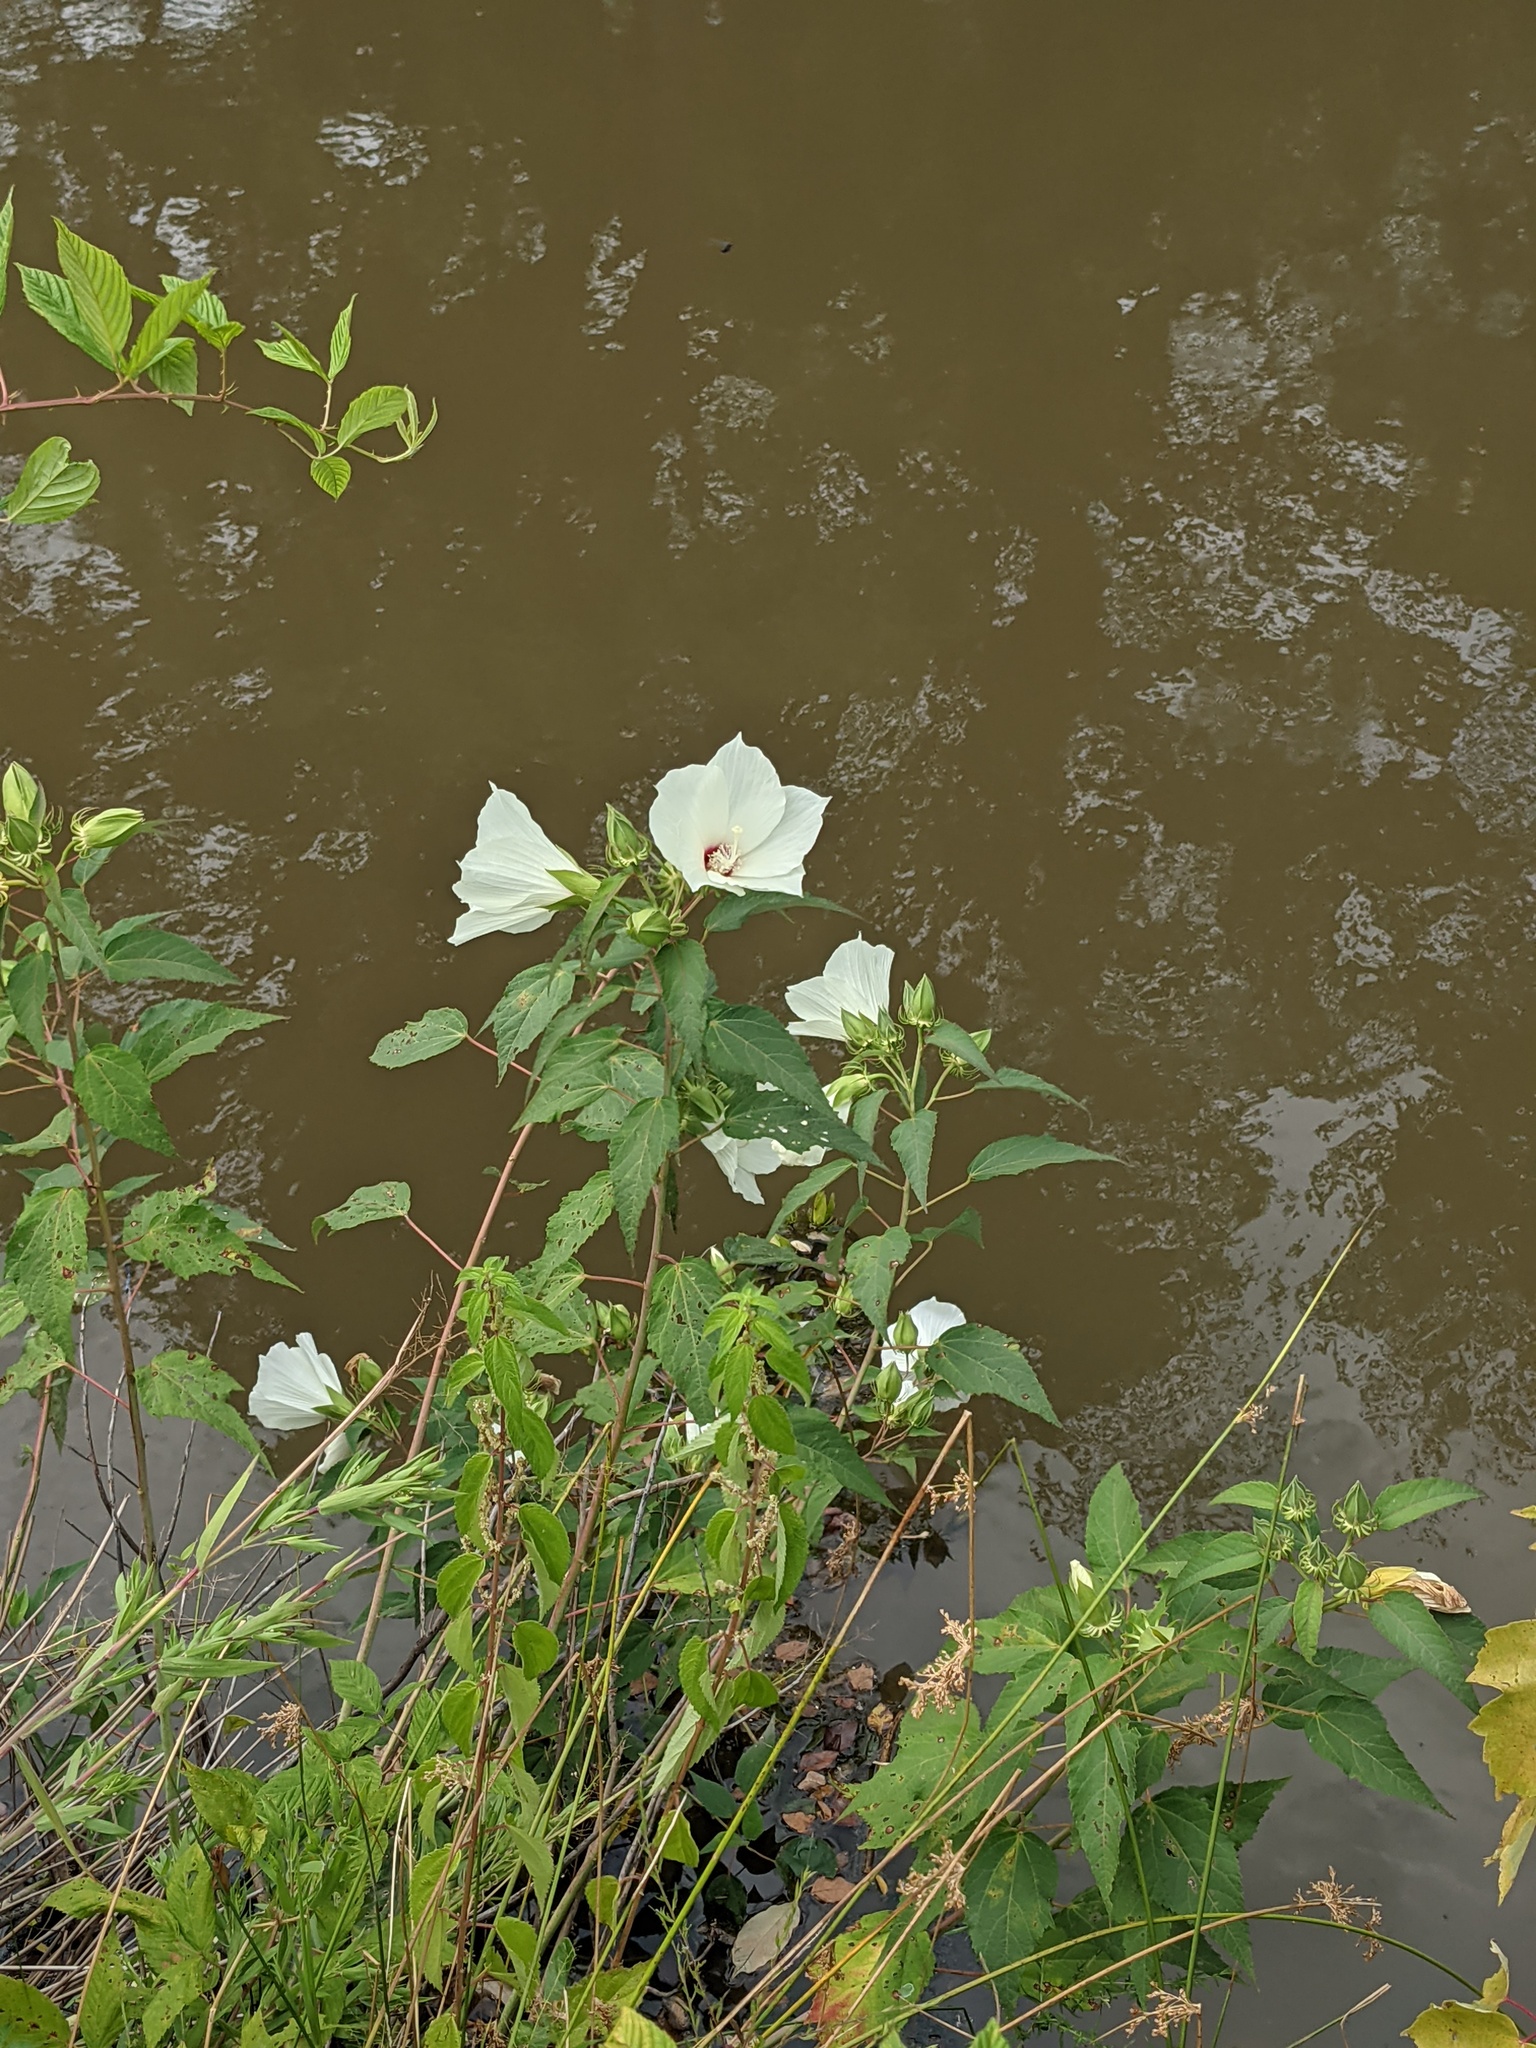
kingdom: Plantae
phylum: Tracheophyta
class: Magnoliopsida
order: Malvales
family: Malvaceae
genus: Hibiscus
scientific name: Hibiscus moscheutos
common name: Common rose-mallow
